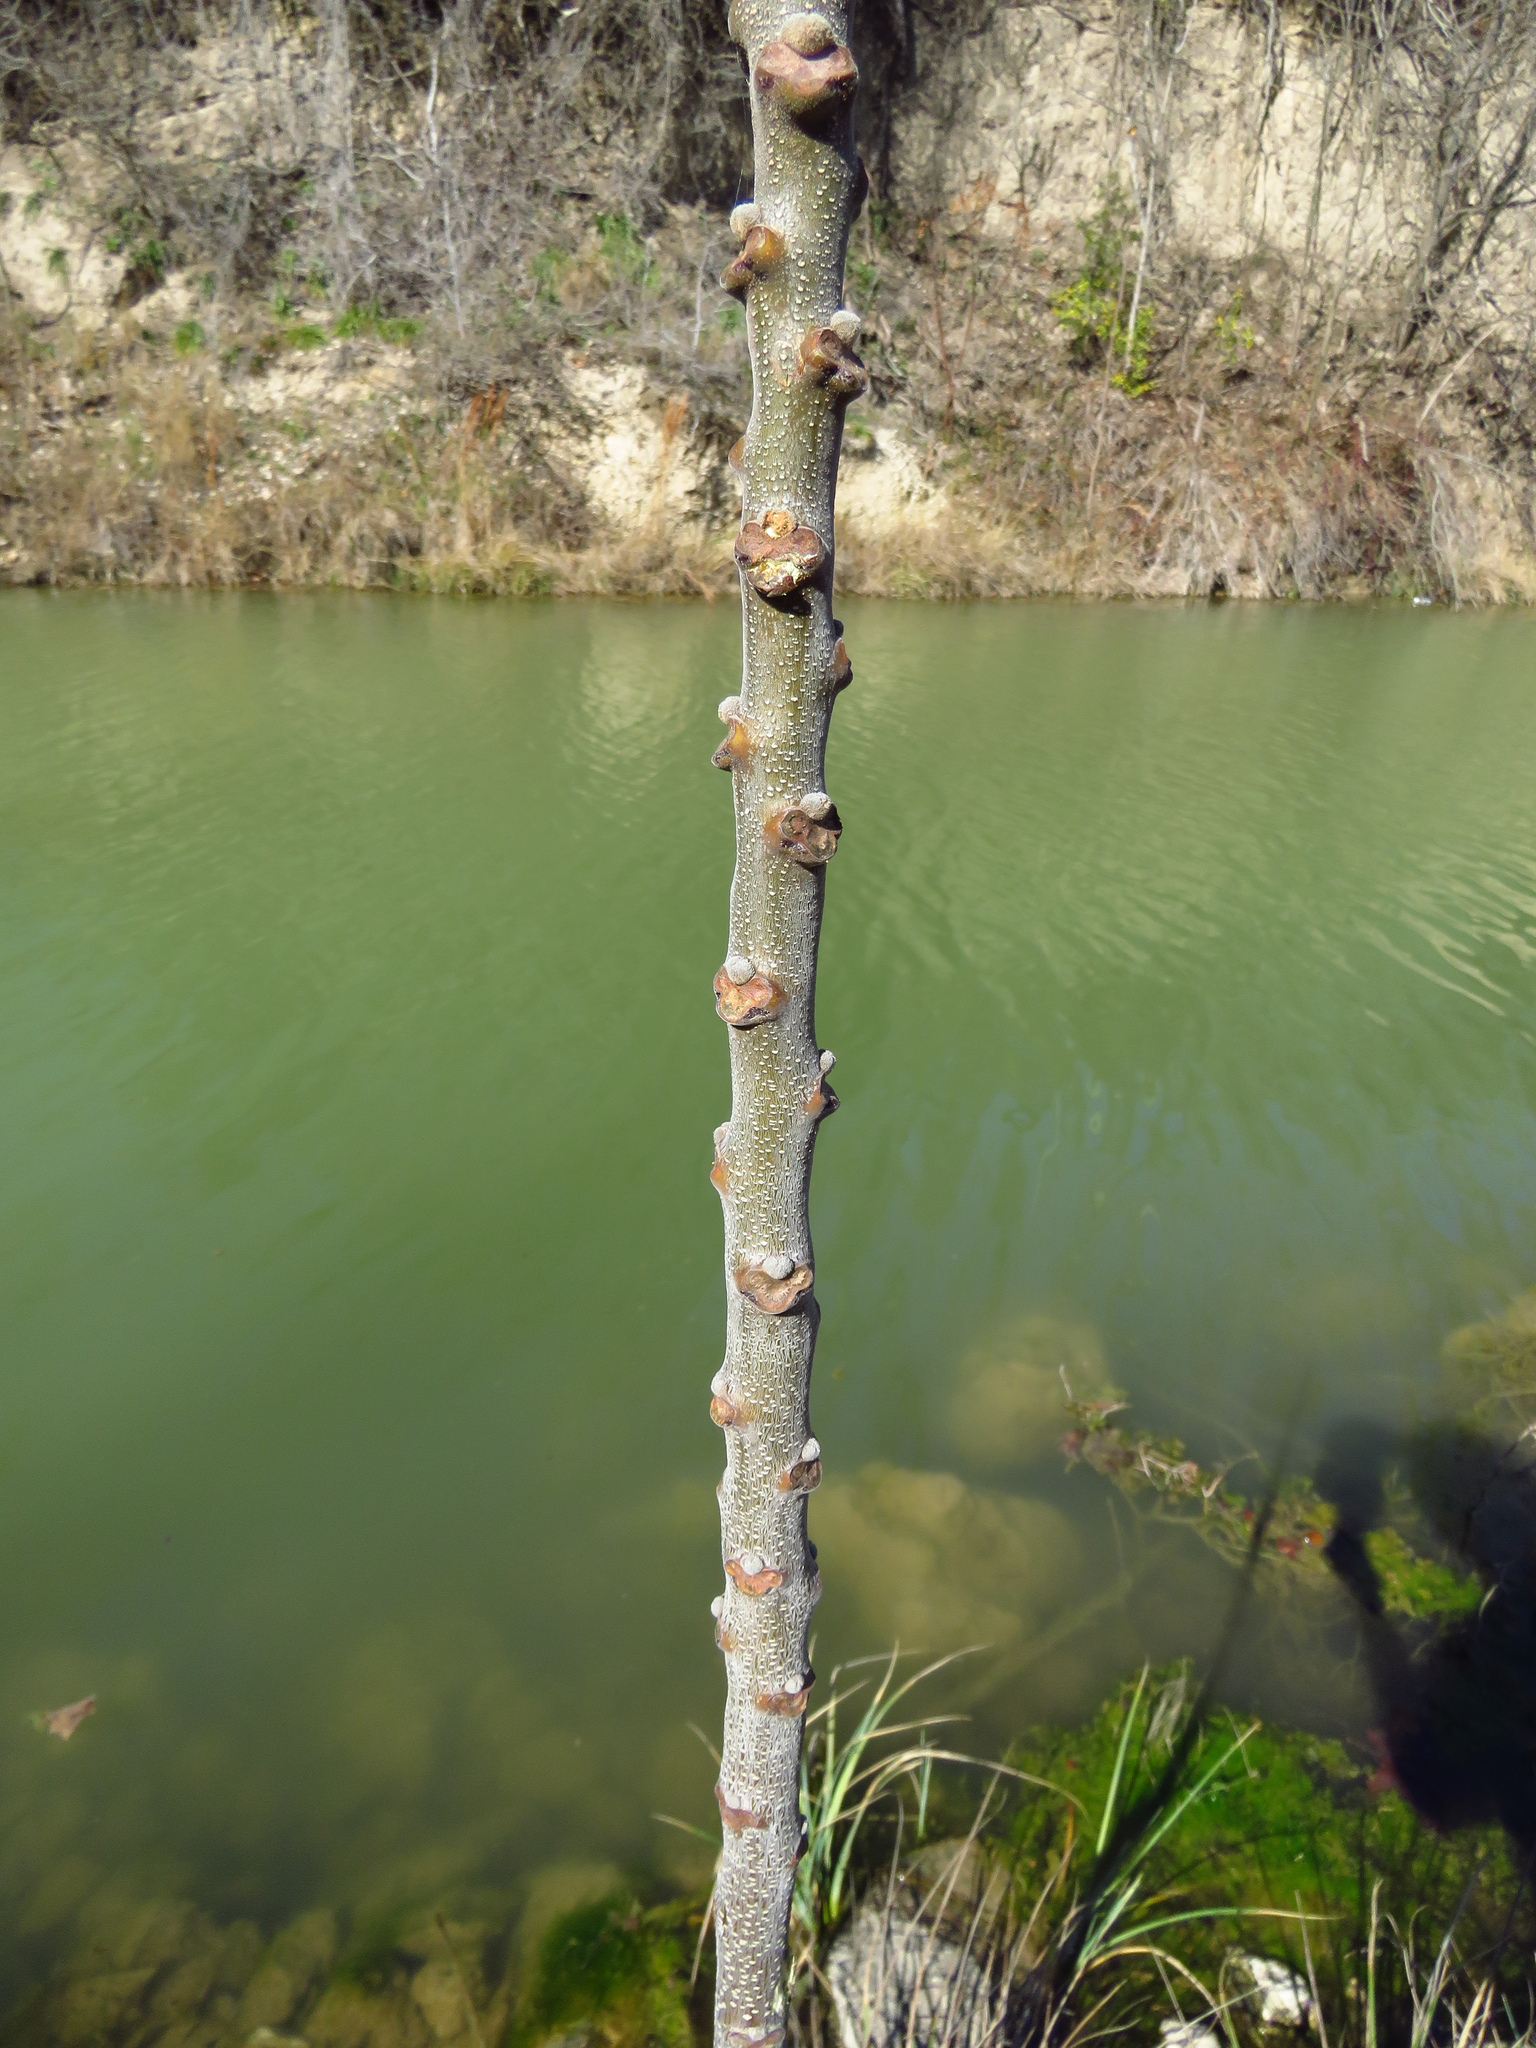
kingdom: Plantae
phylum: Tracheophyta
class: Magnoliopsida
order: Sapindales
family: Meliaceae
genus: Melia
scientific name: Melia azedarach
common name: Chinaberrytree
